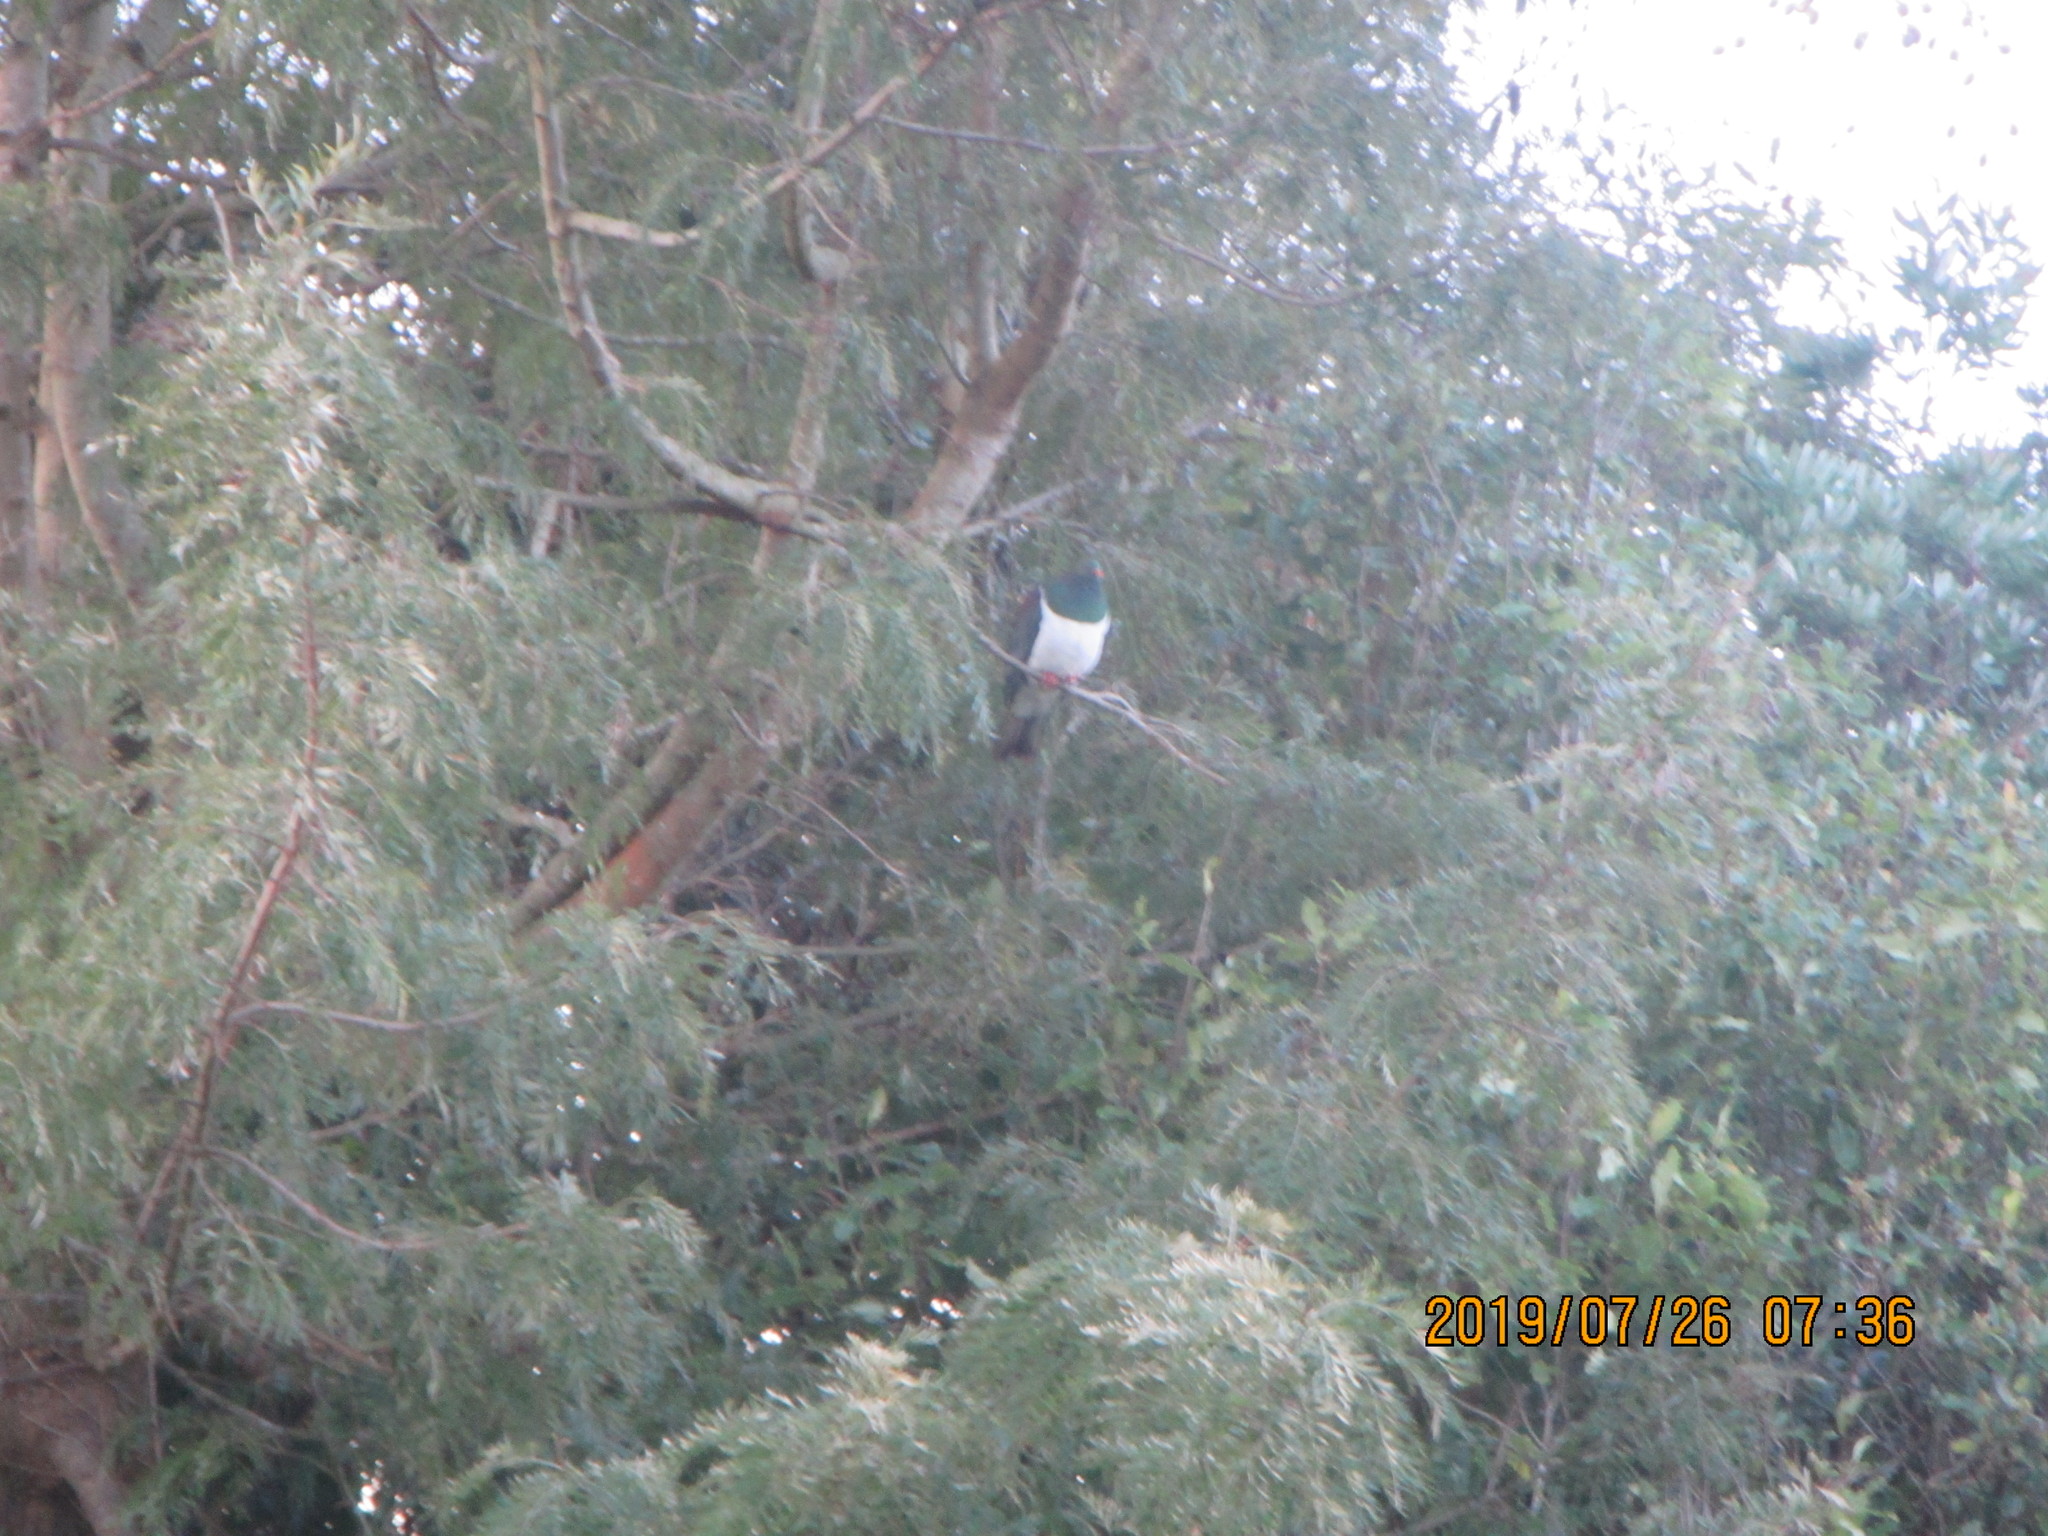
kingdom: Animalia
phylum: Chordata
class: Aves
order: Columbiformes
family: Columbidae
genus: Hemiphaga
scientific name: Hemiphaga novaeseelandiae
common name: New zealand pigeon
